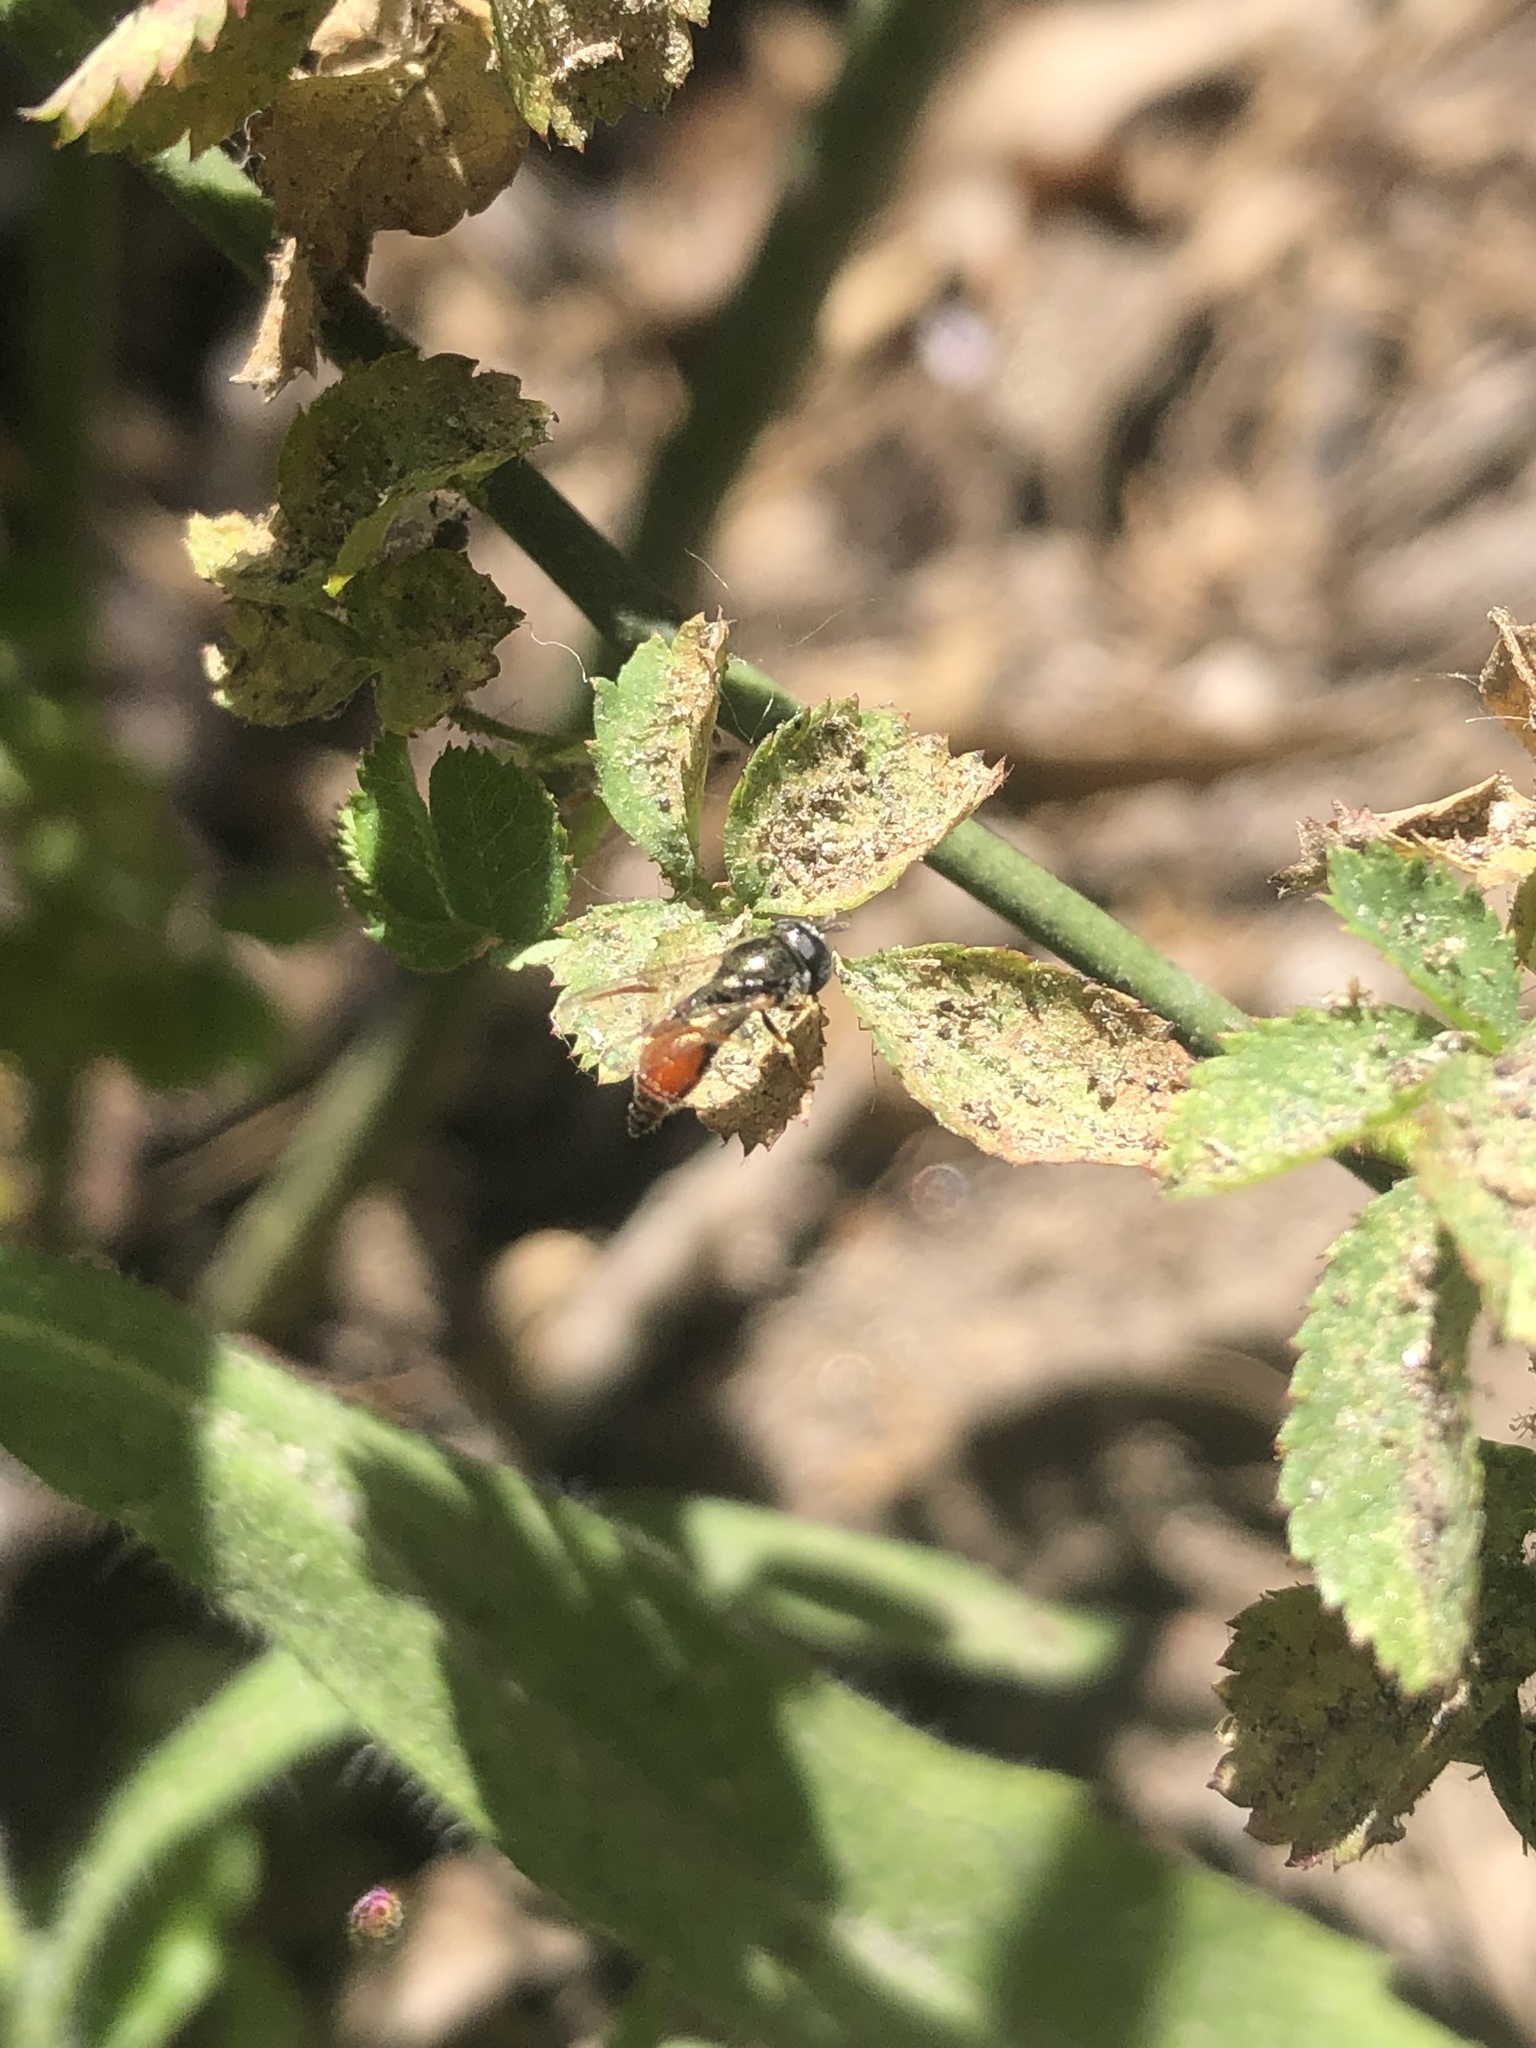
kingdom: Animalia
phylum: Arthropoda
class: Insecta
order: Diptera
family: Syrphidae
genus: Paragus
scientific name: Paragus haemorrhous
